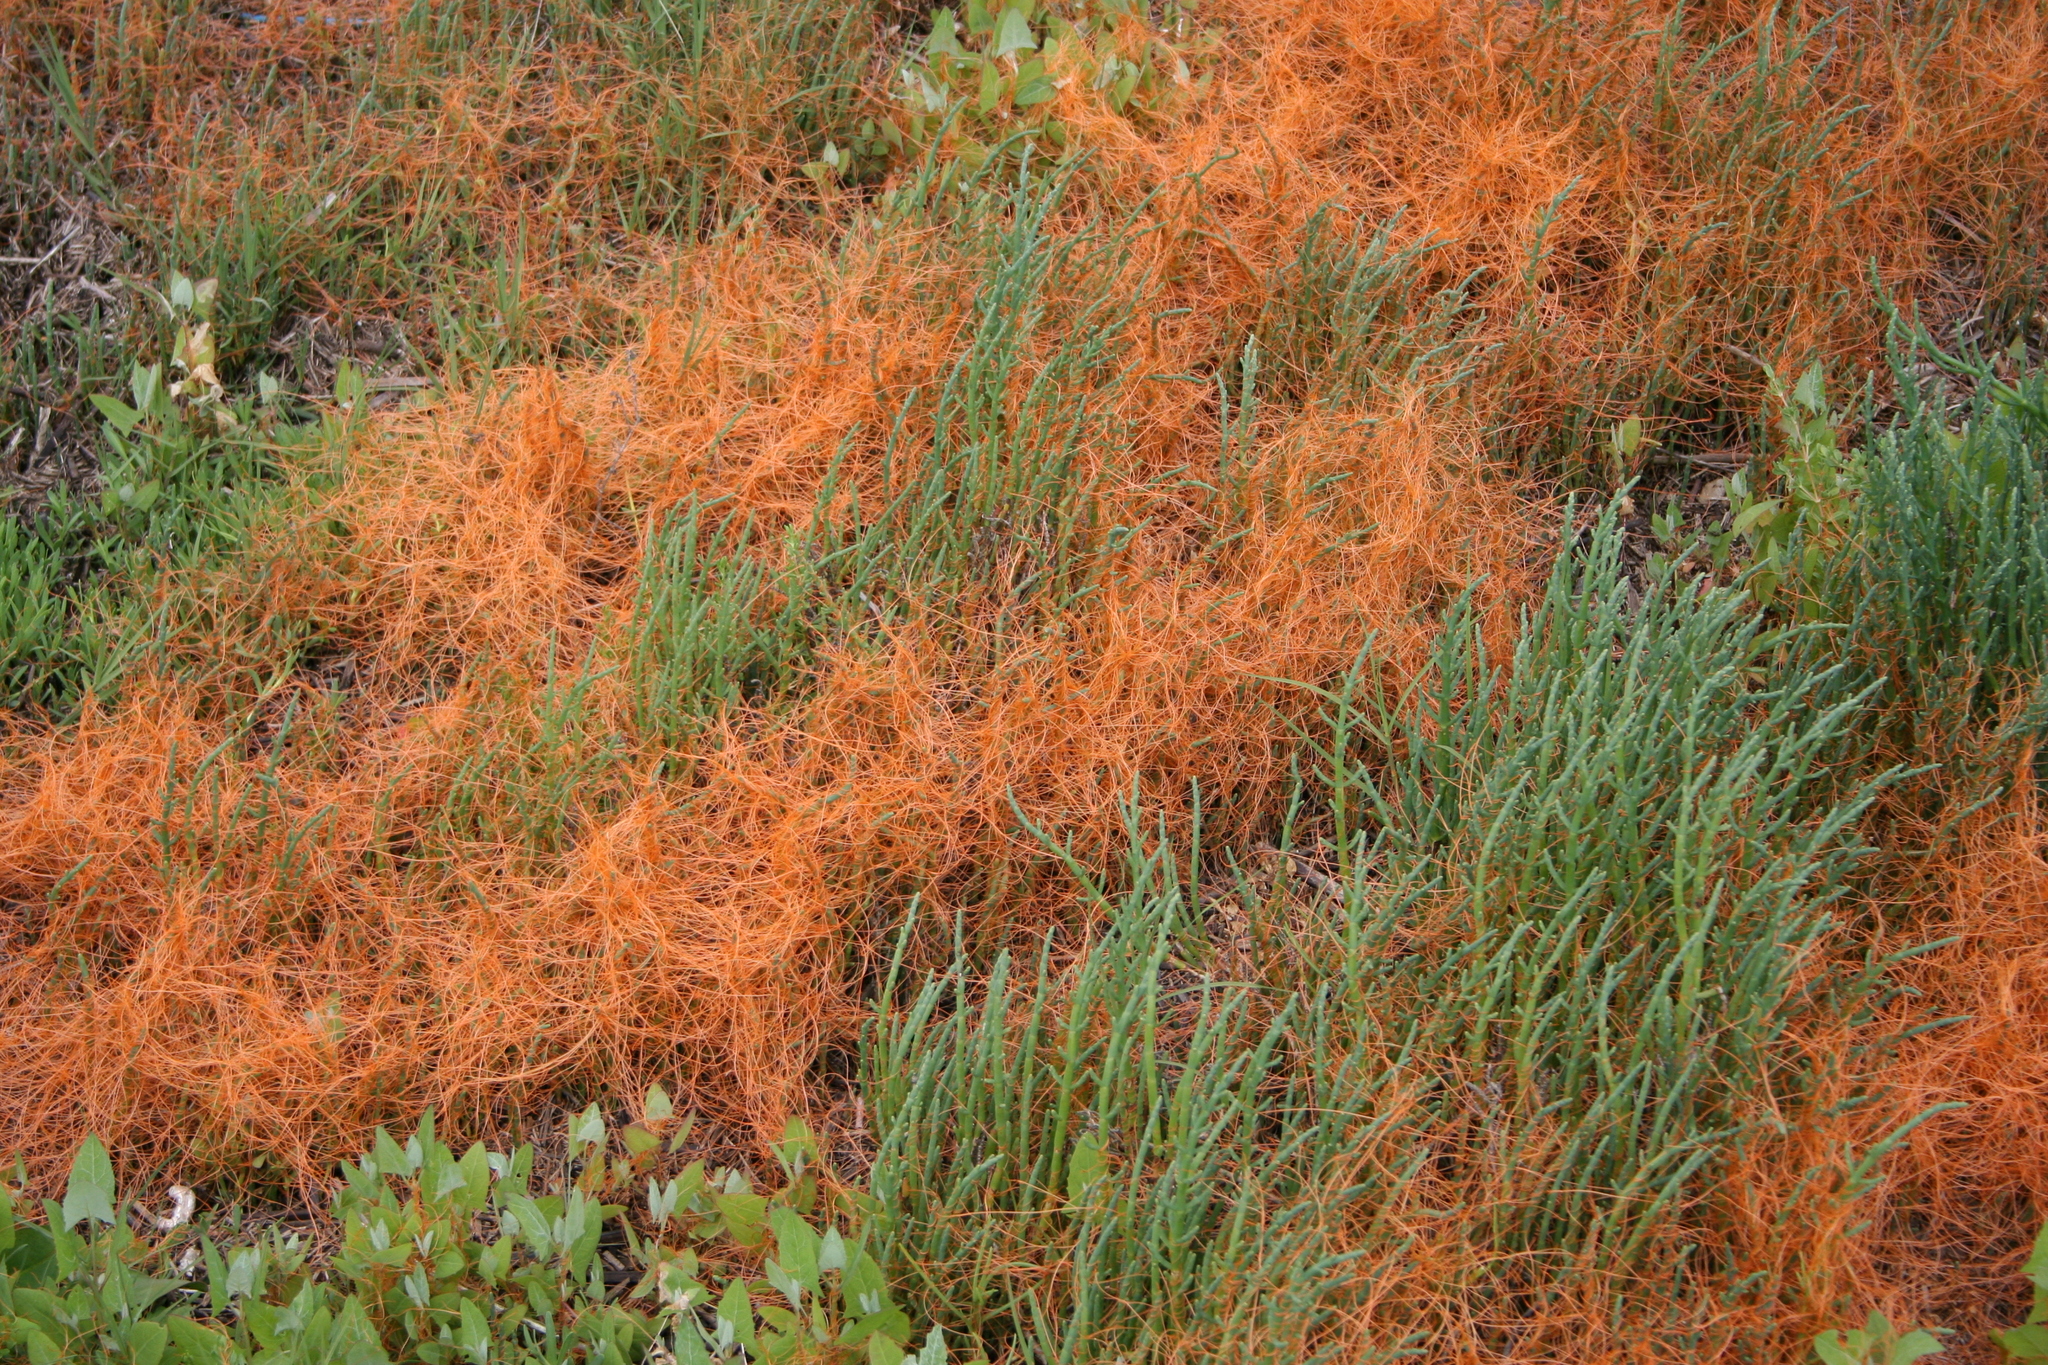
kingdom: Plantae
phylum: Tracheophyta
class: Magnoliopsida
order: Solanales
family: Convolvulaceae
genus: Cuscuta
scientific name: Cuscuta pacifica
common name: Large saltmarsh dodder
